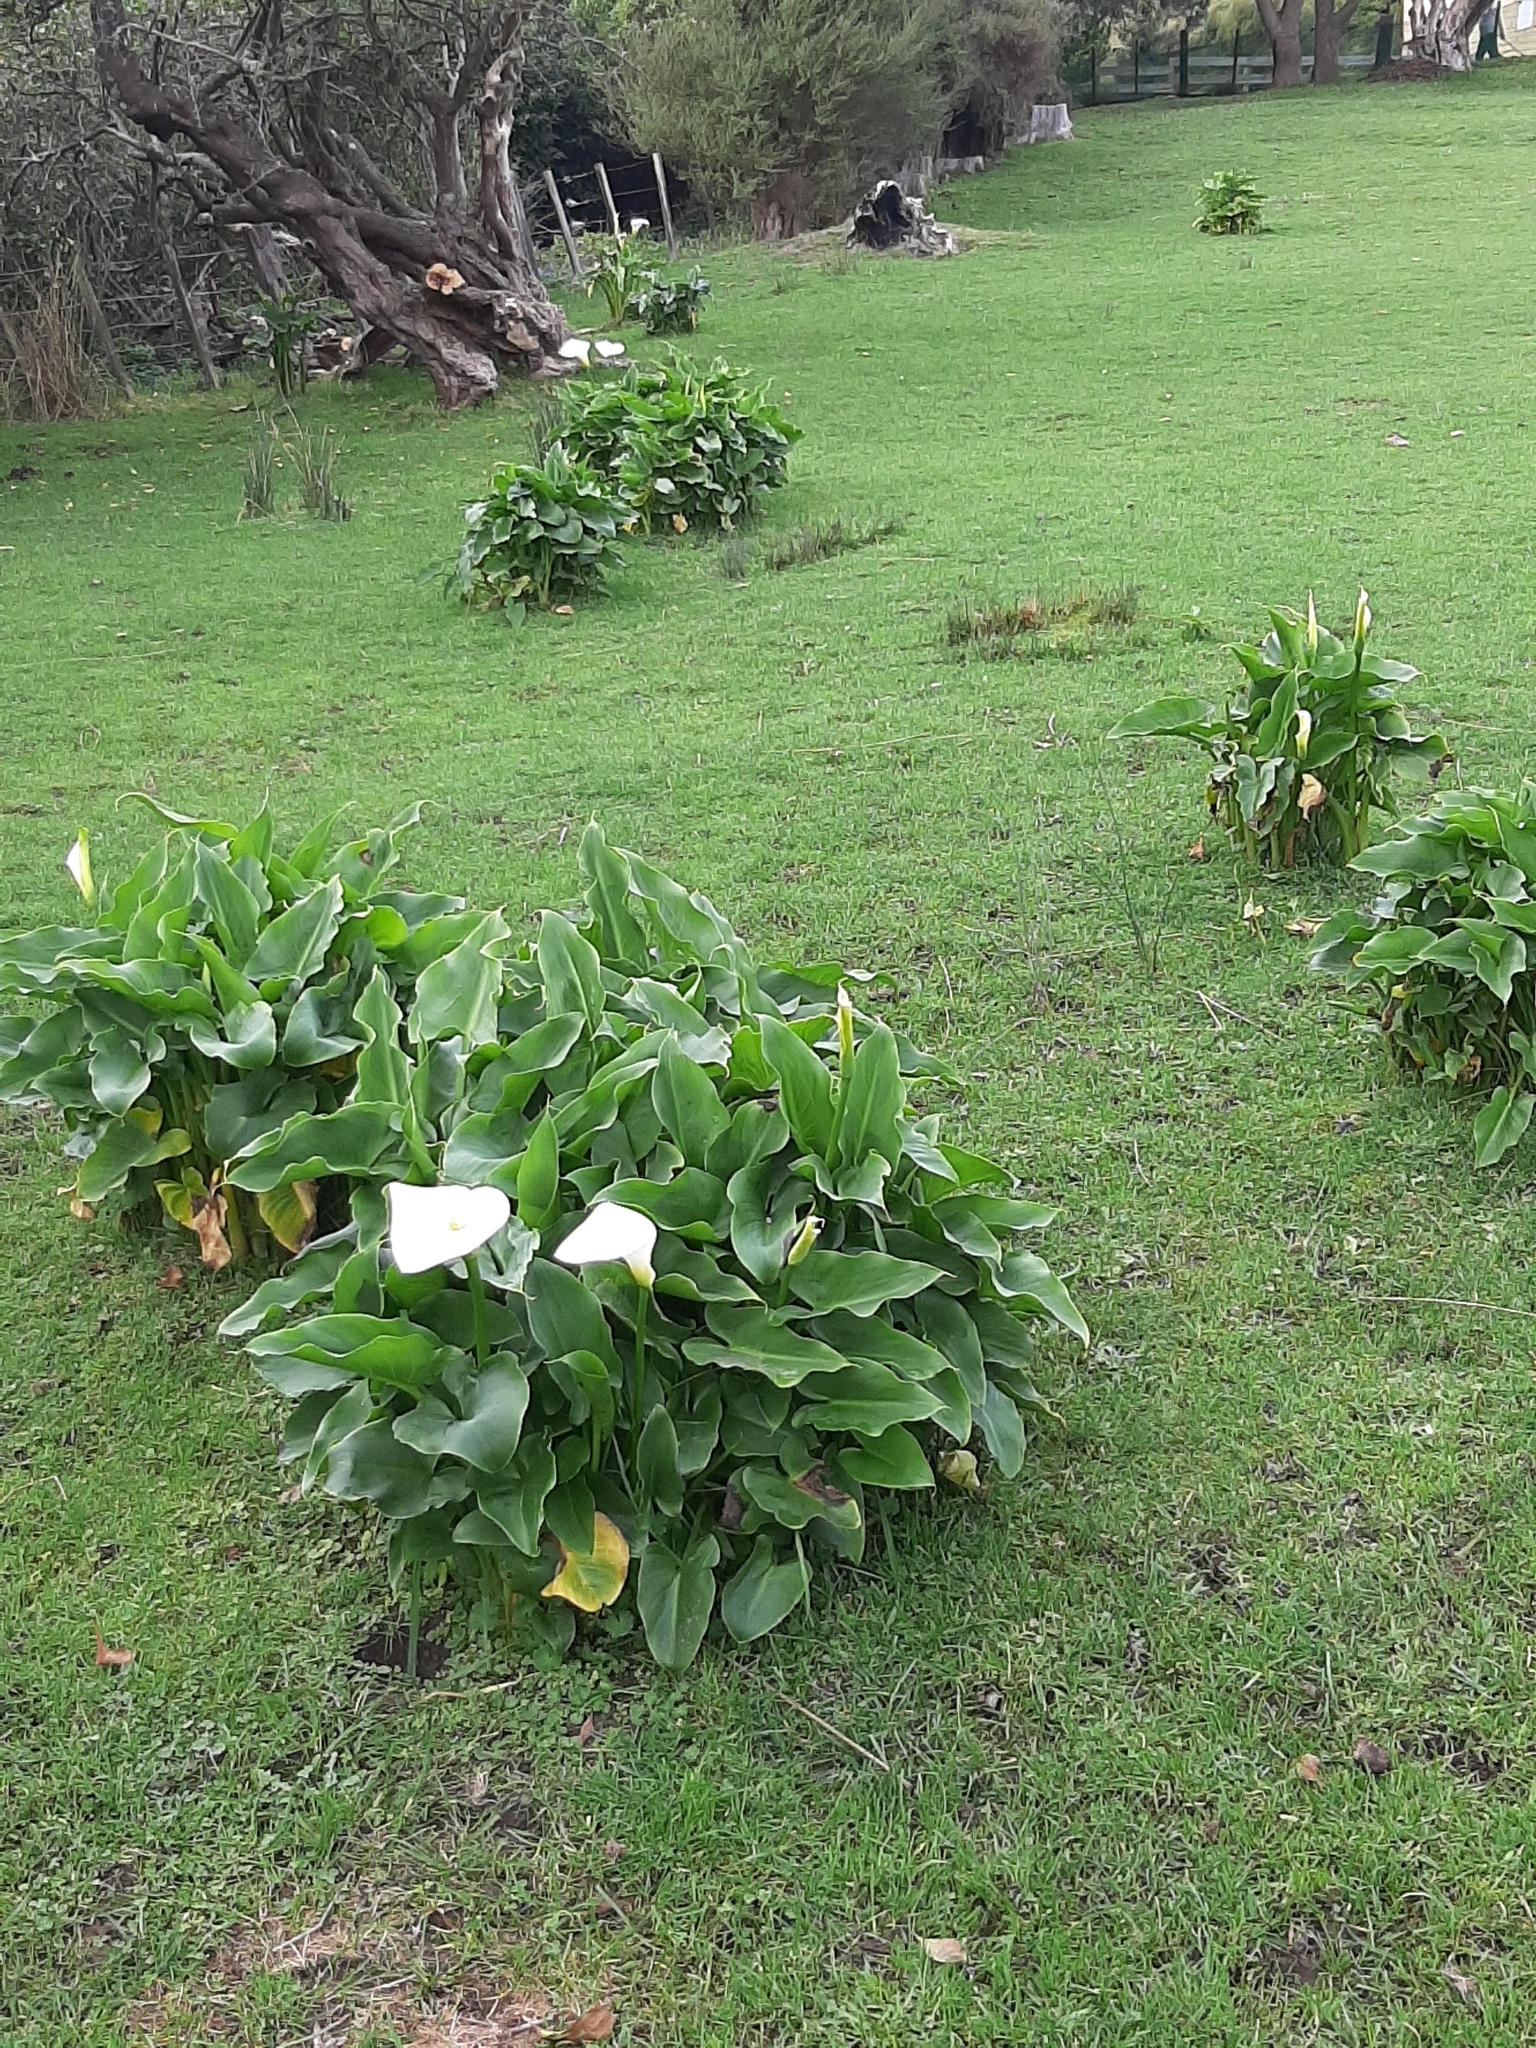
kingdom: Plantae
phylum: Tracheophyta
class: Liliopsida
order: Alismatales
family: Araceae
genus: Zantedeschia
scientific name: Zantedeschia aethiopica
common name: Altar-lily
